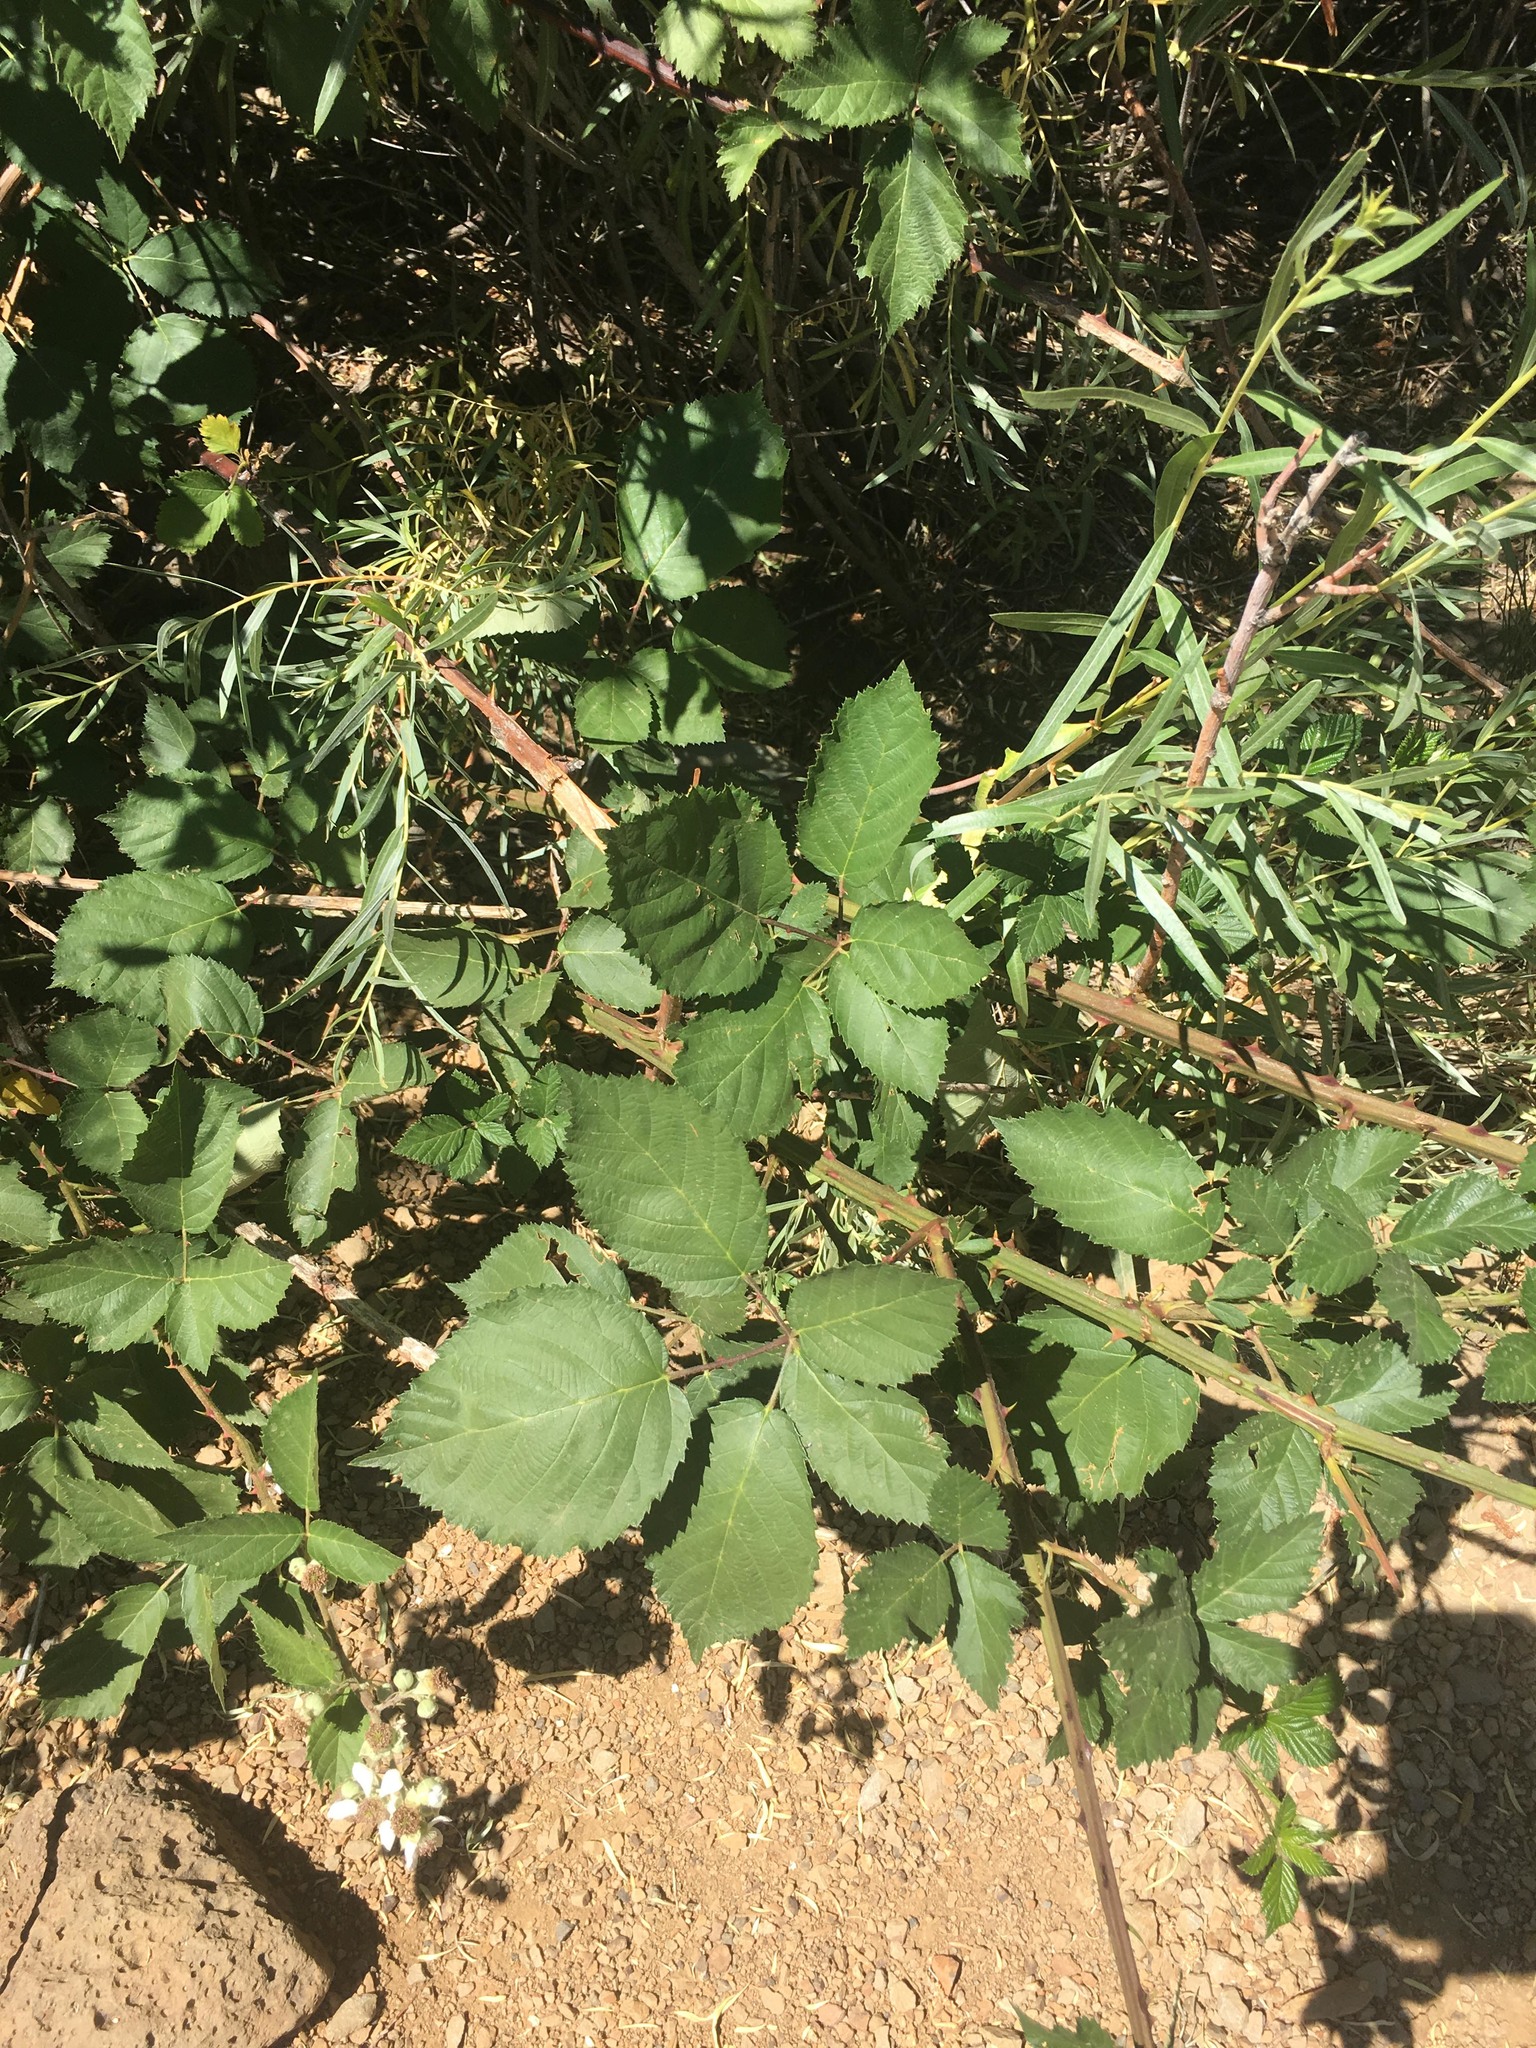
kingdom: Plantae
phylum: Tracheophyta
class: Magnoliopsida
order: Rosales
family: Rosaceae
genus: Rubus
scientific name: Rubus armeniacus
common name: Himalayan blackberry
